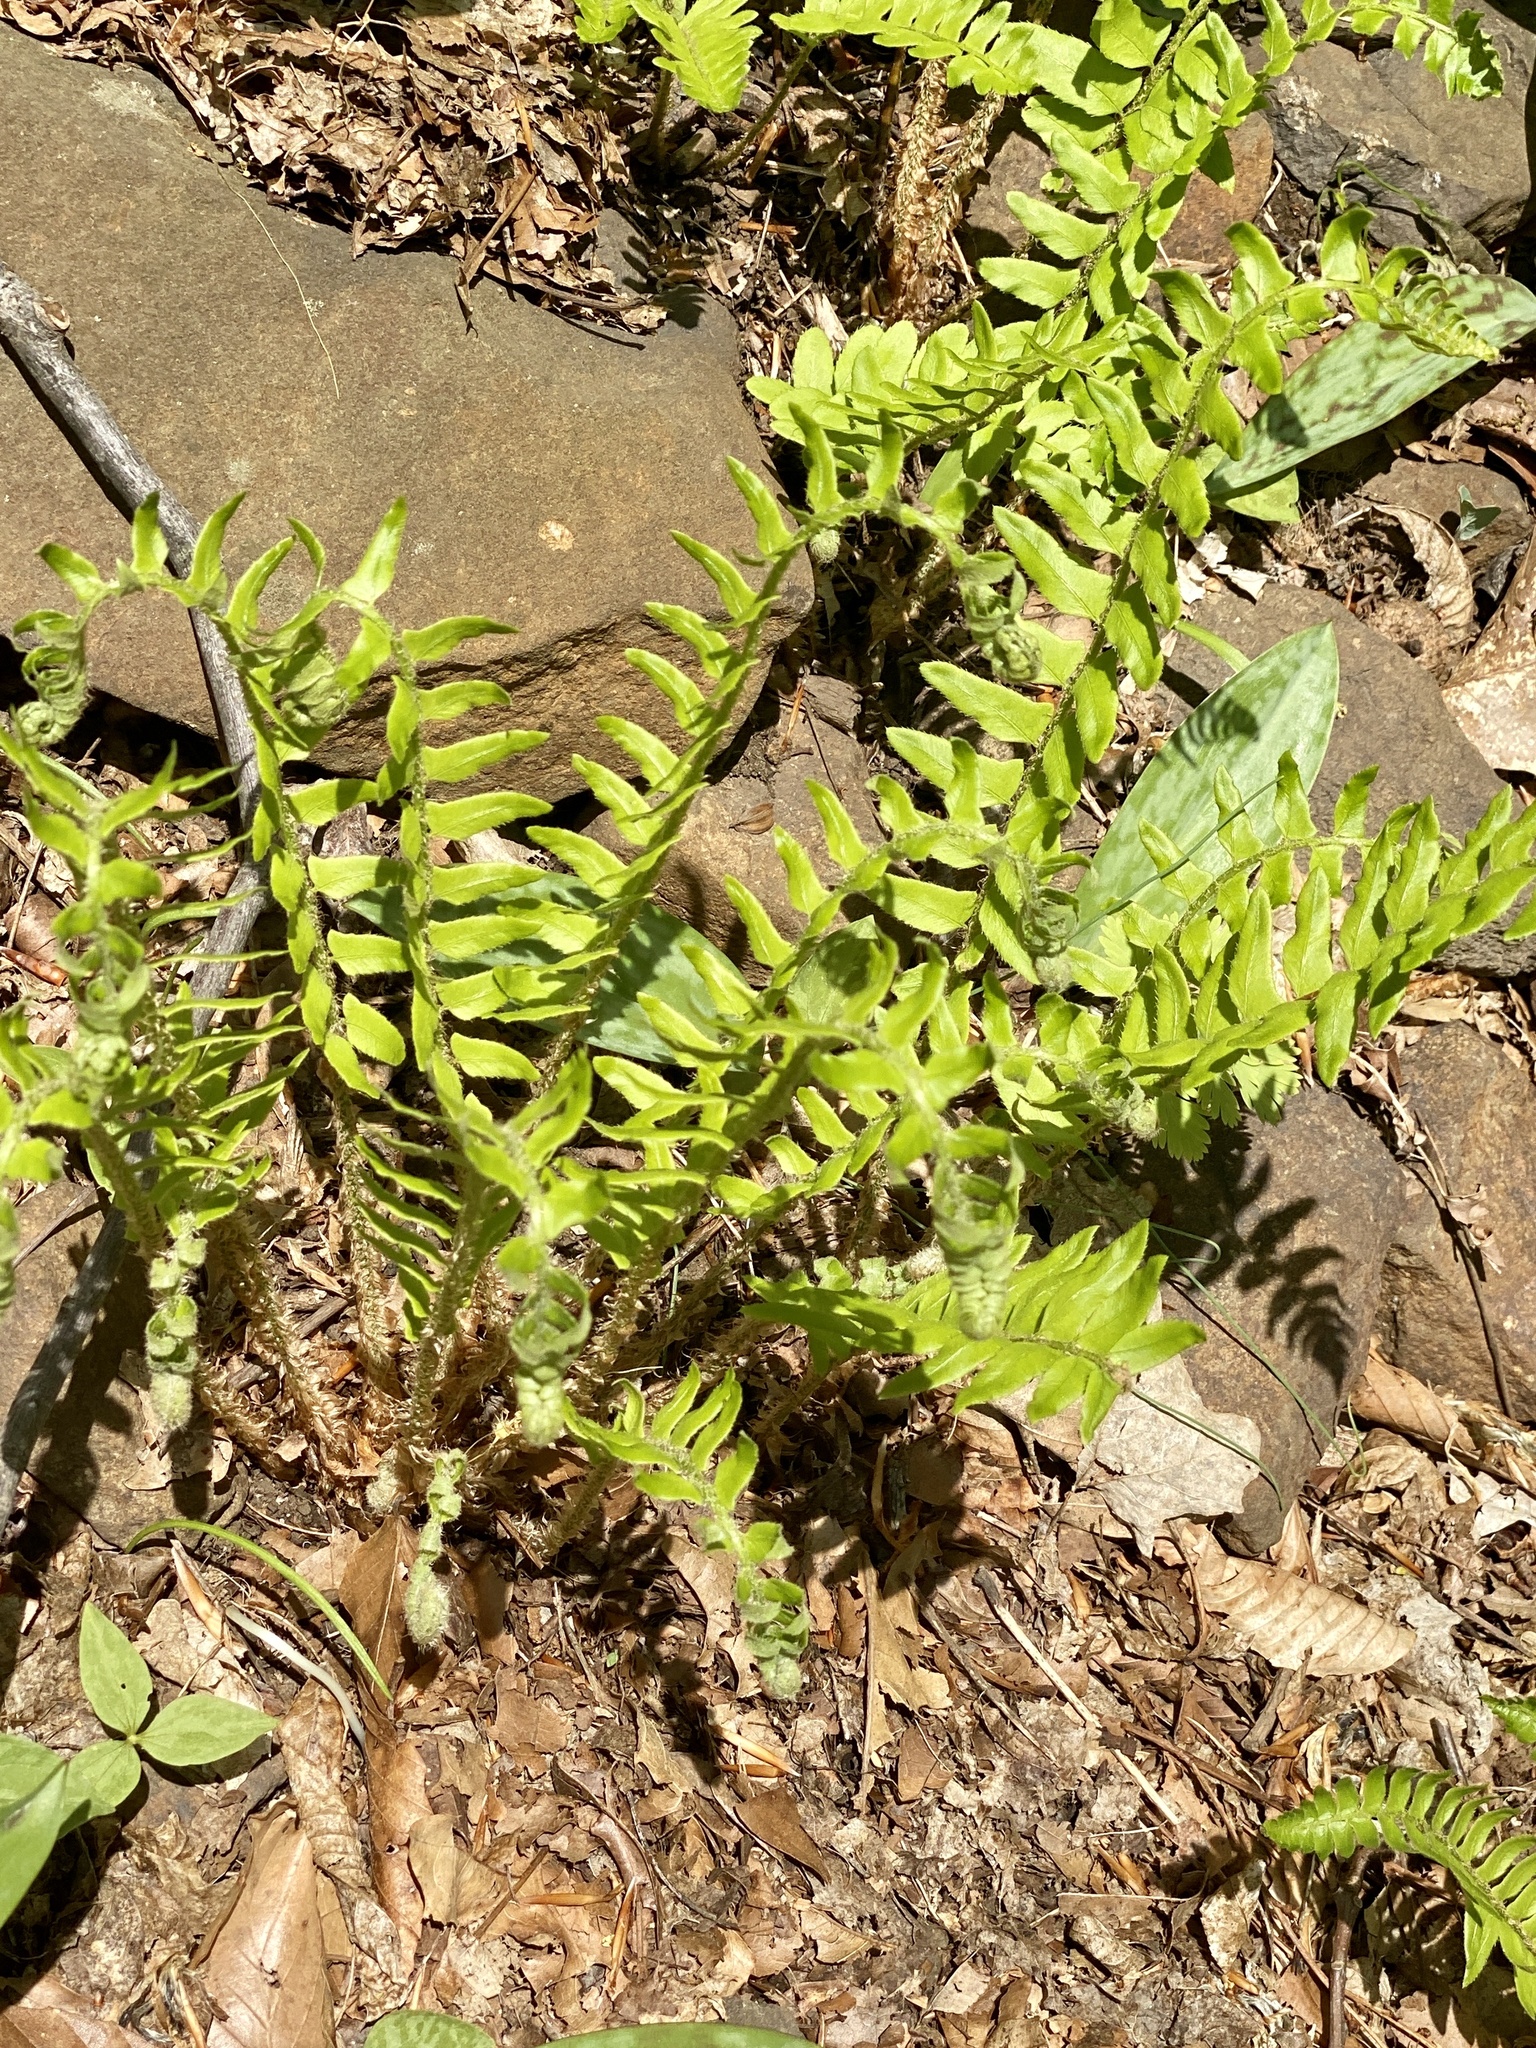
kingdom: Plantae
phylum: Tracheophyta
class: Polypodiopsida
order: Polypodiales
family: Dryopteridaceae
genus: Polystichum
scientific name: Polystichum acrostichoides
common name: Christmas fern
